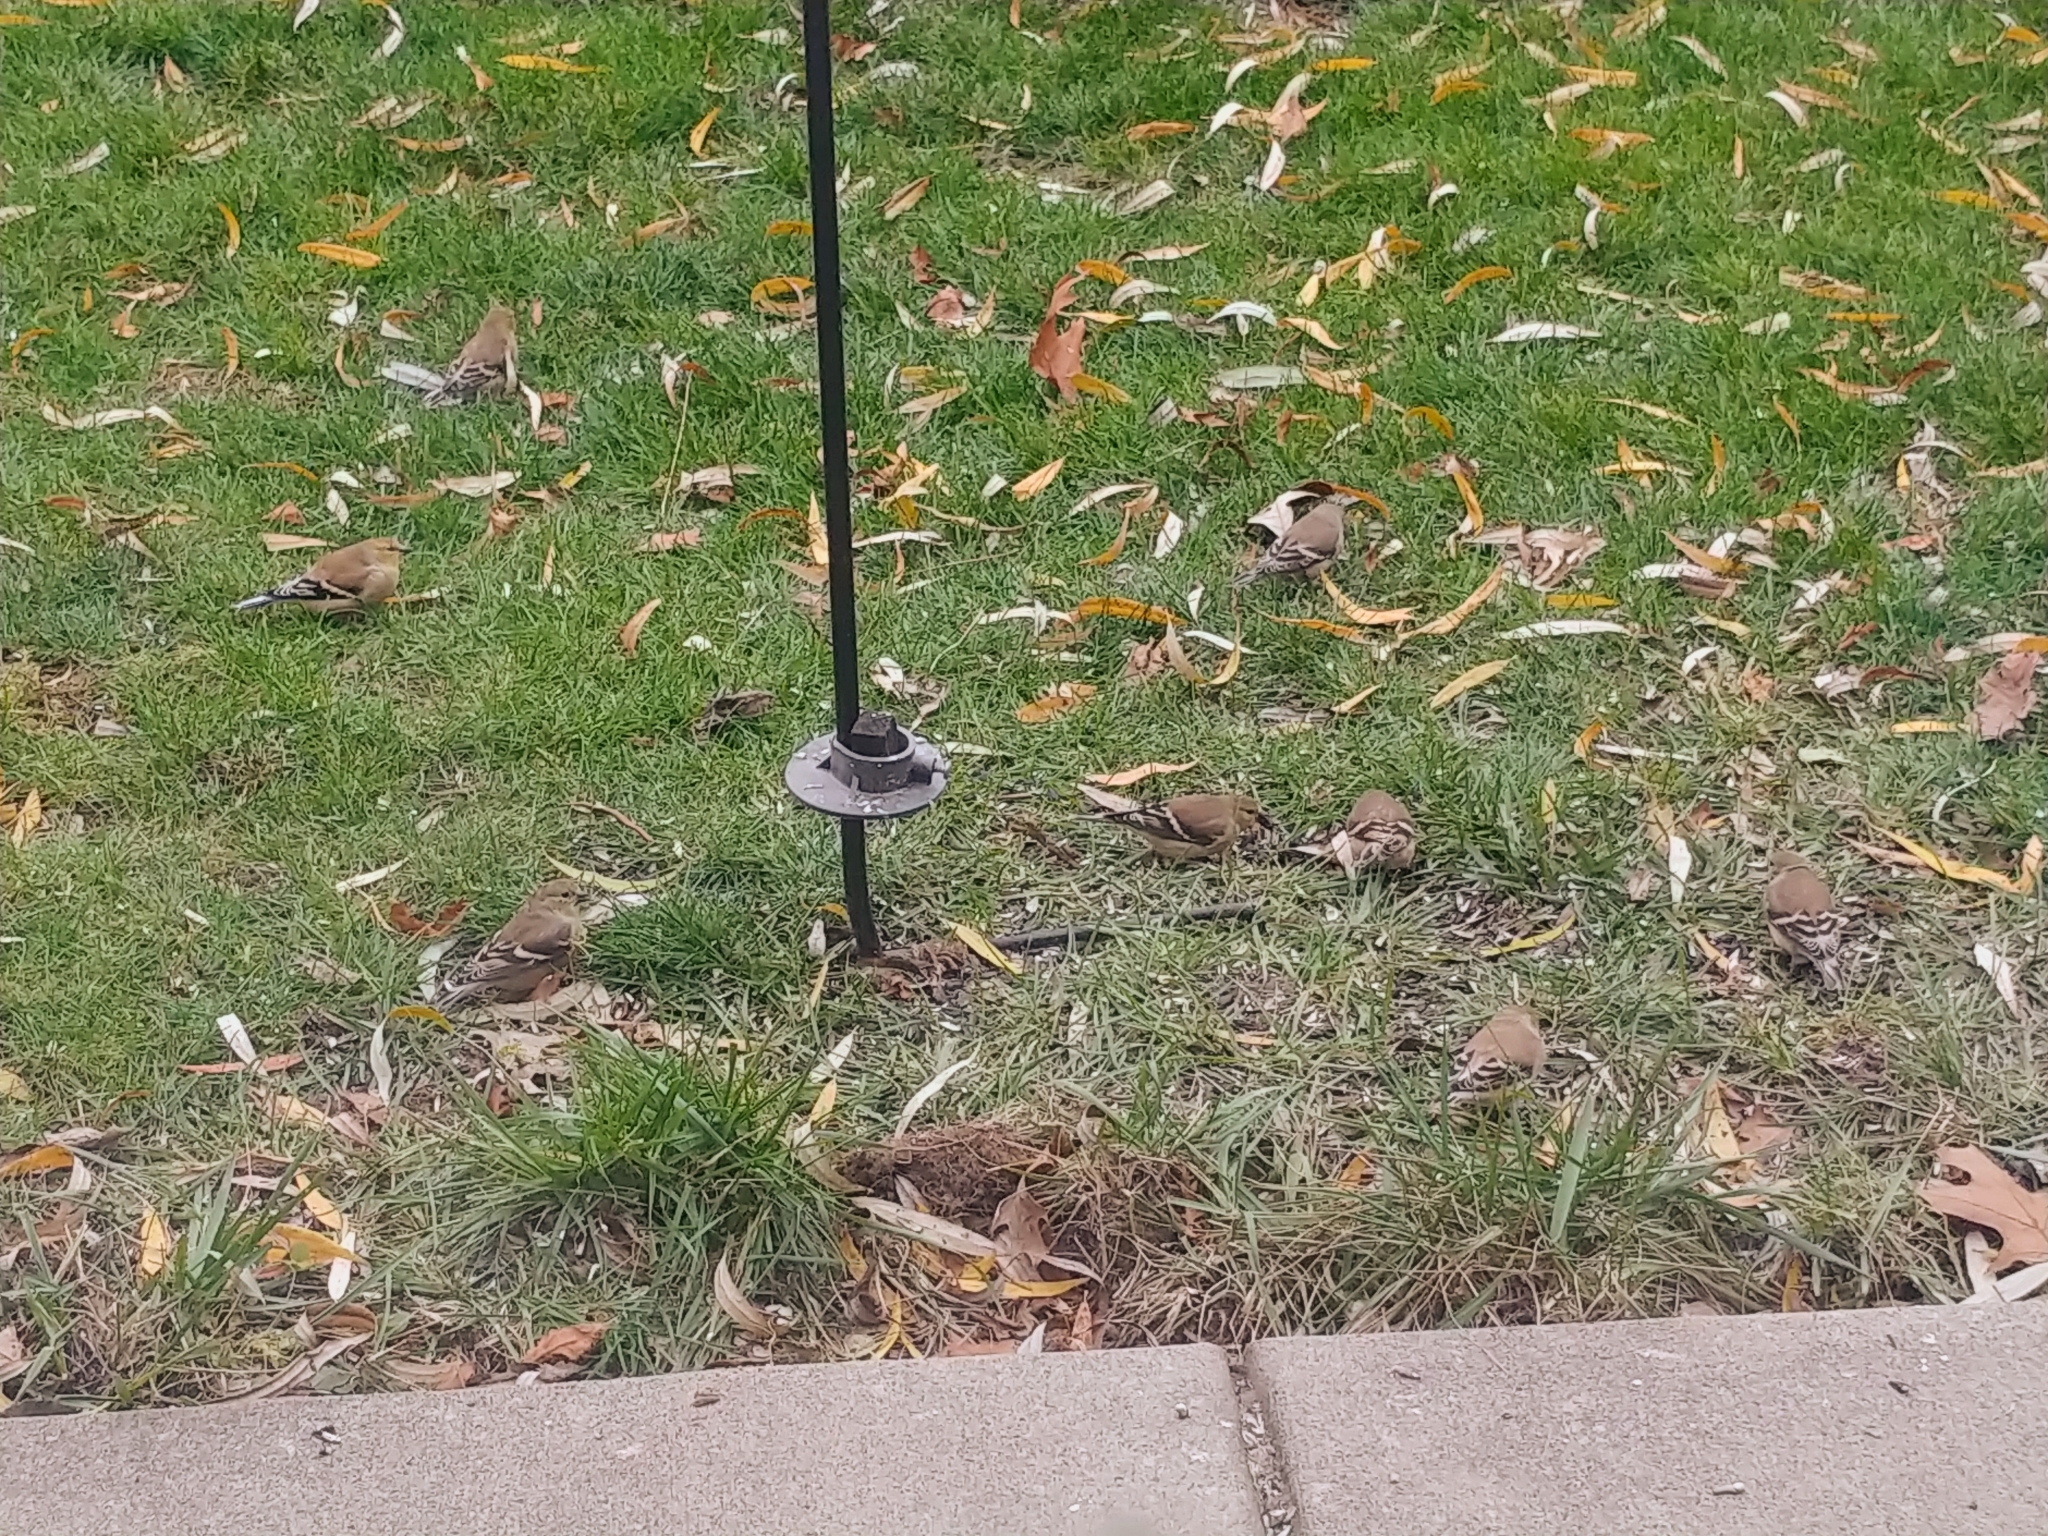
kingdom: Animalia
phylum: Chordata
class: Aves
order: Passeriformes
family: Fringillidae
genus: Spinus
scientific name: Spinus tristis
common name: American goldfinch
